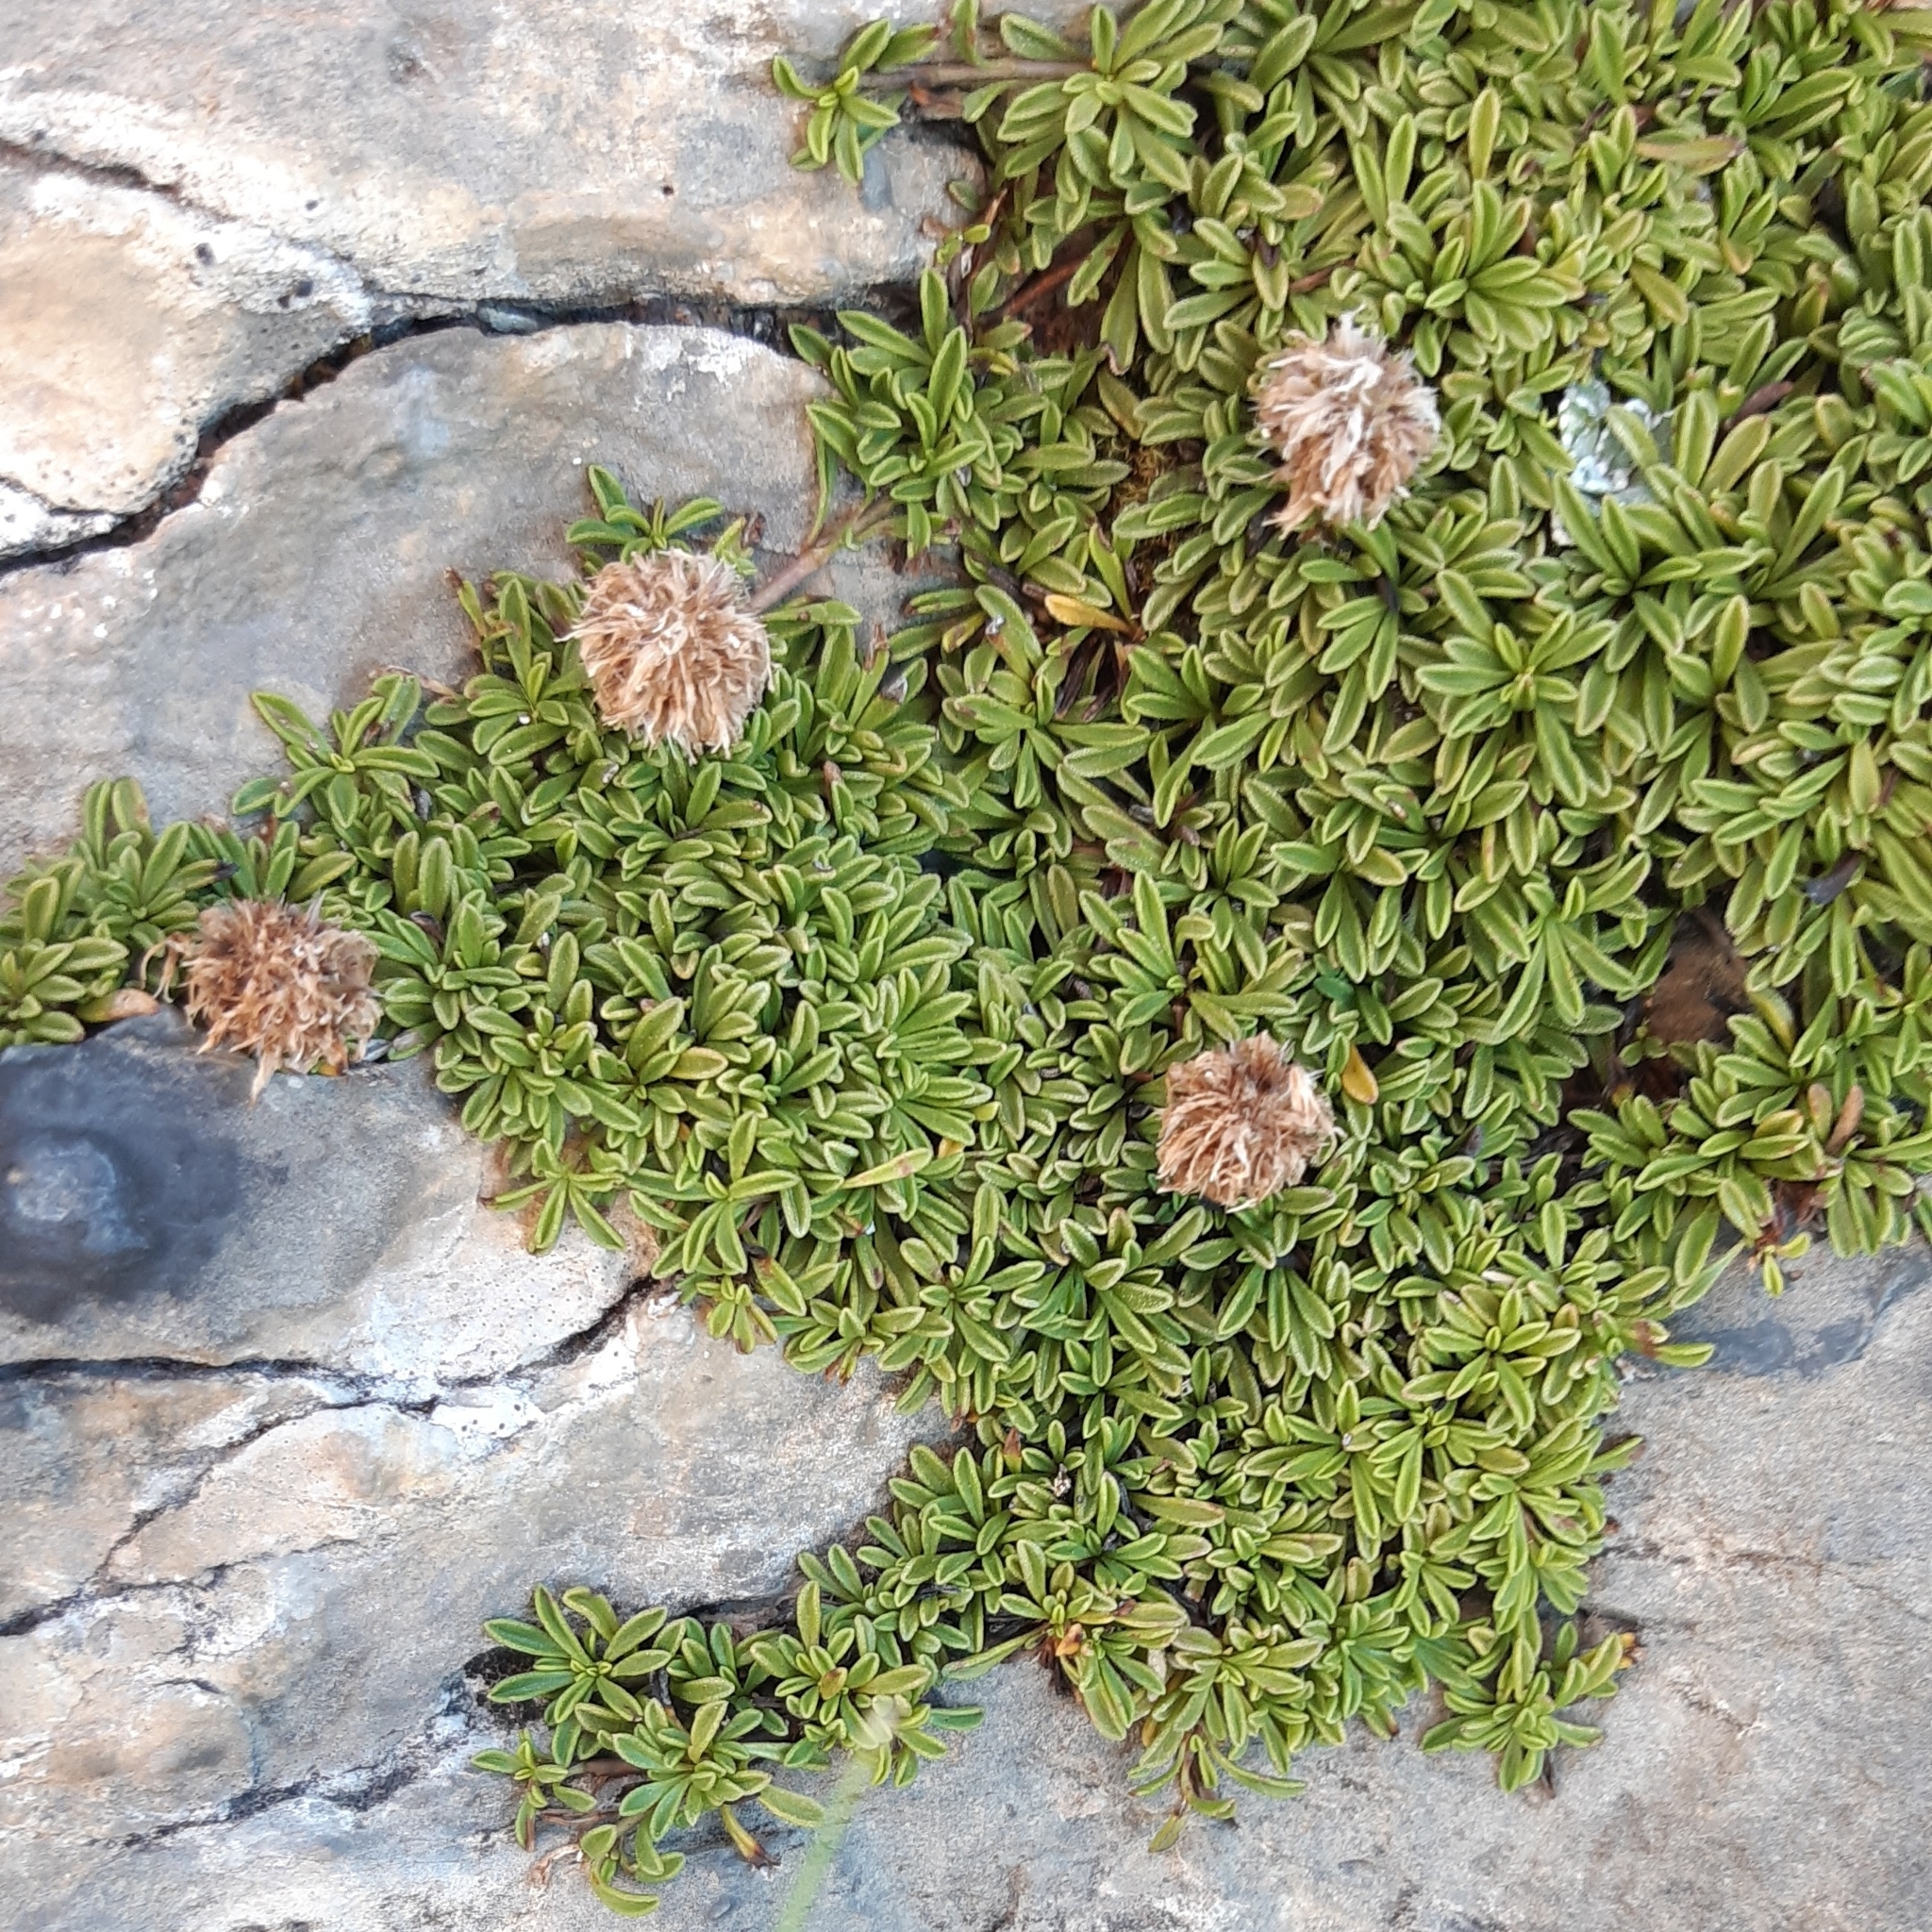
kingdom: Plantae
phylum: Tracheophyta
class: Magnoliopsida
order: Lamiales
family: Plantaginaceae
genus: Globularia
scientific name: Globularia repens
